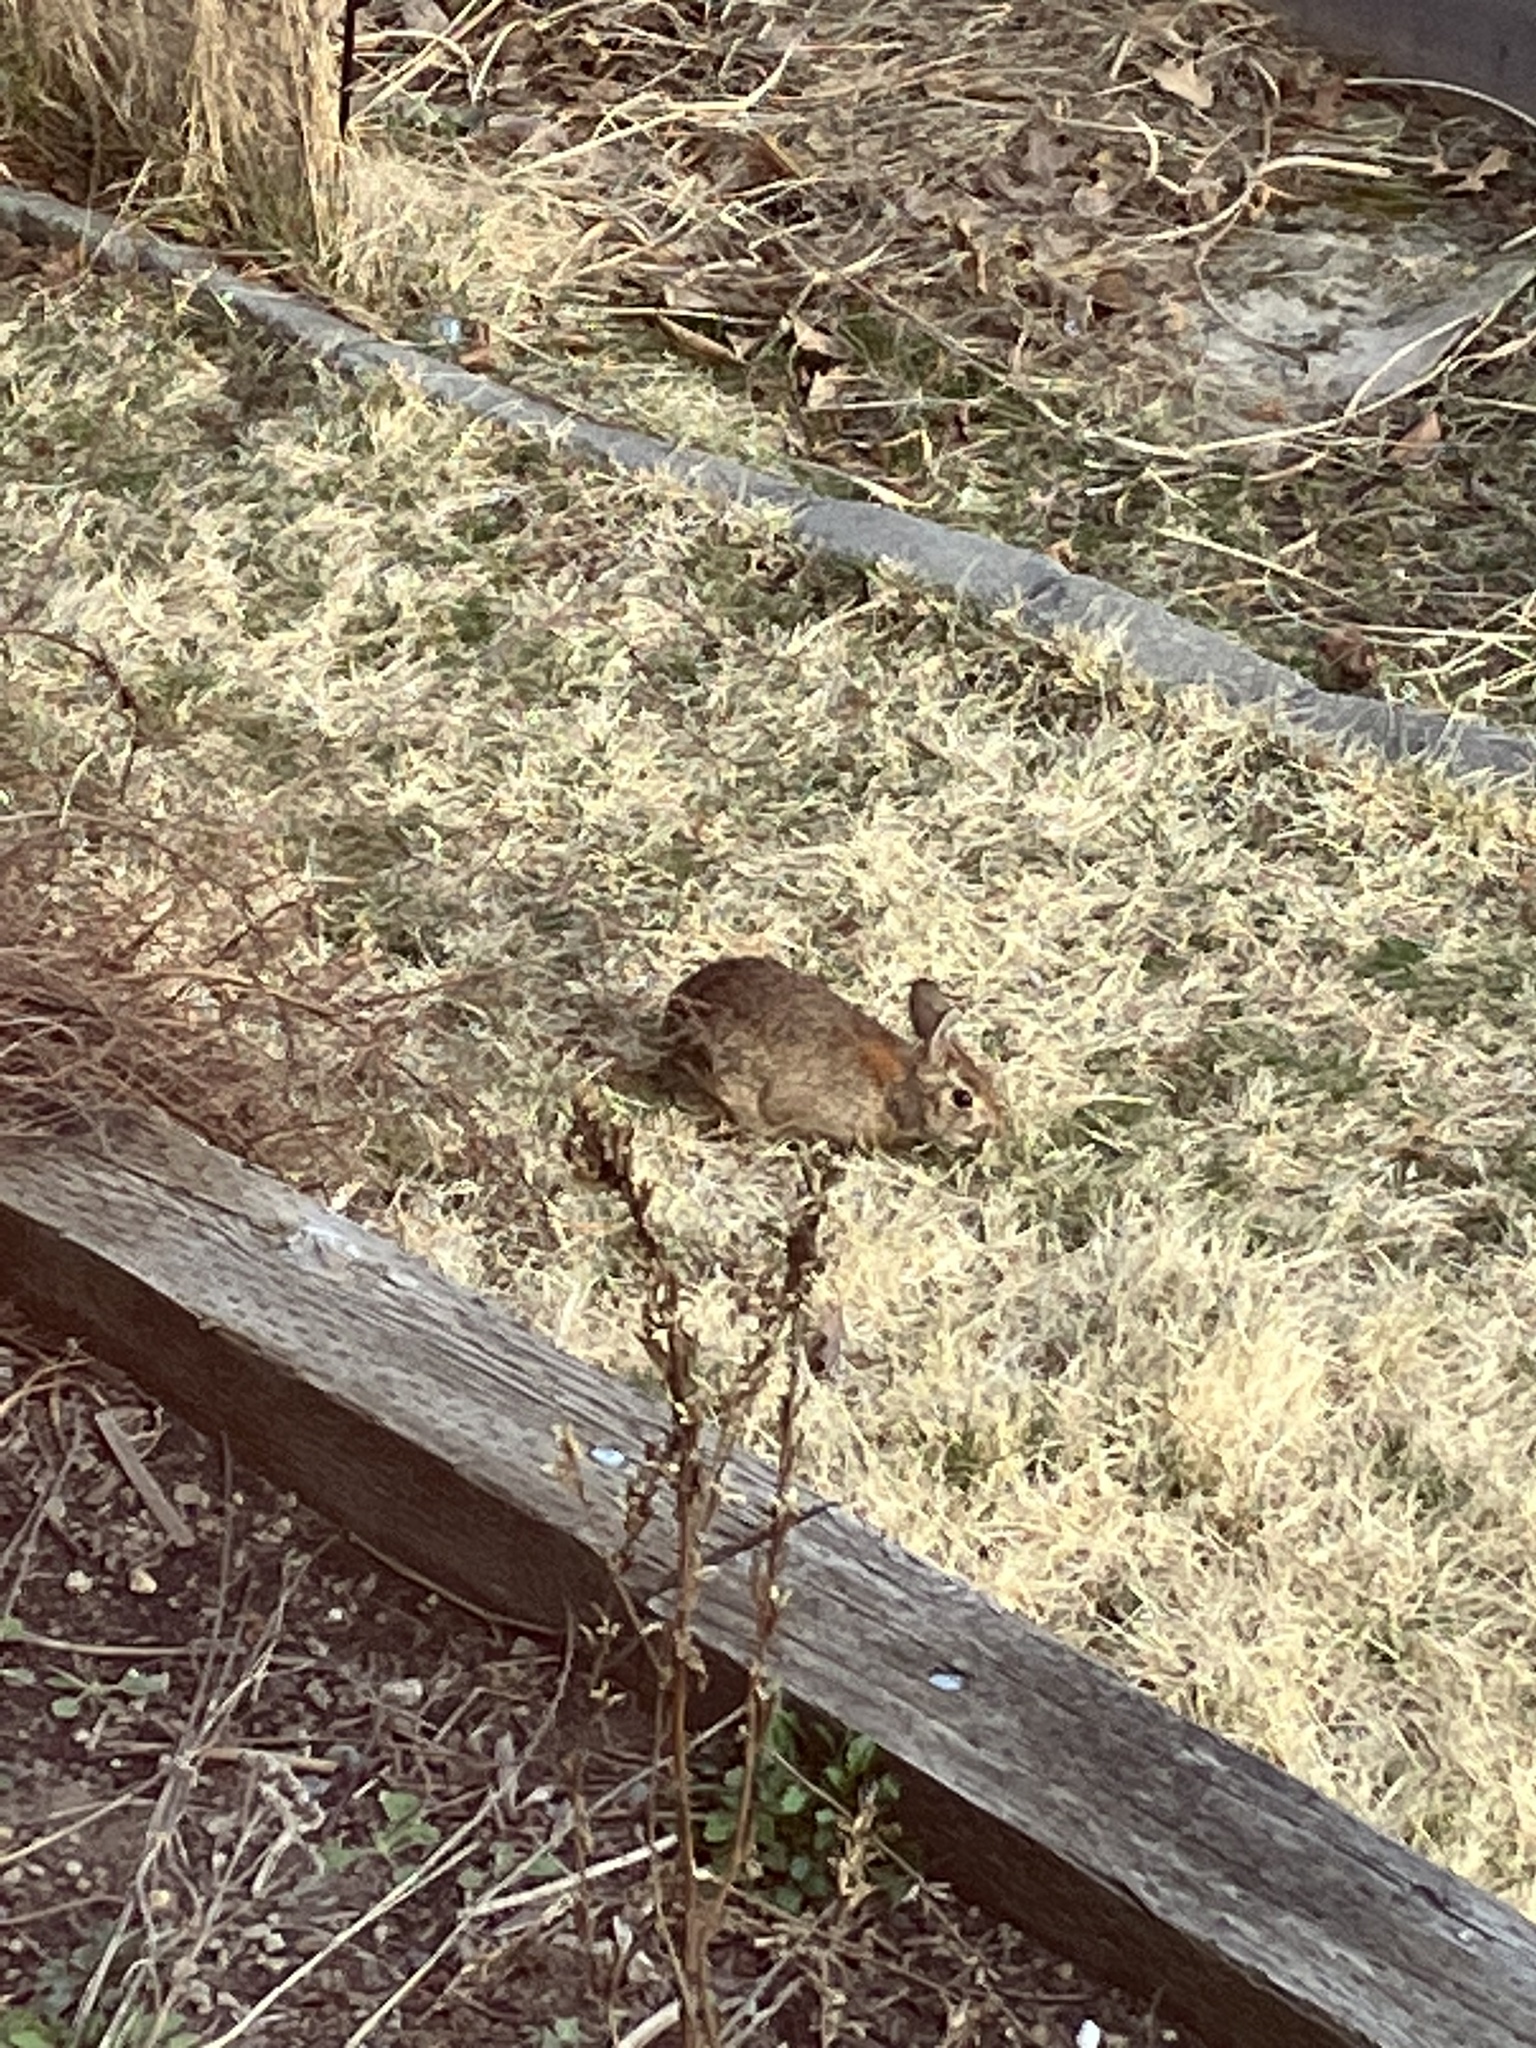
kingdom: Animalia
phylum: Chordata
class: Mammalia
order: Lagomorpha
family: Leporidae
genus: Sylvilagus
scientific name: Sylvilagus floridanus
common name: Eastern cottontail
